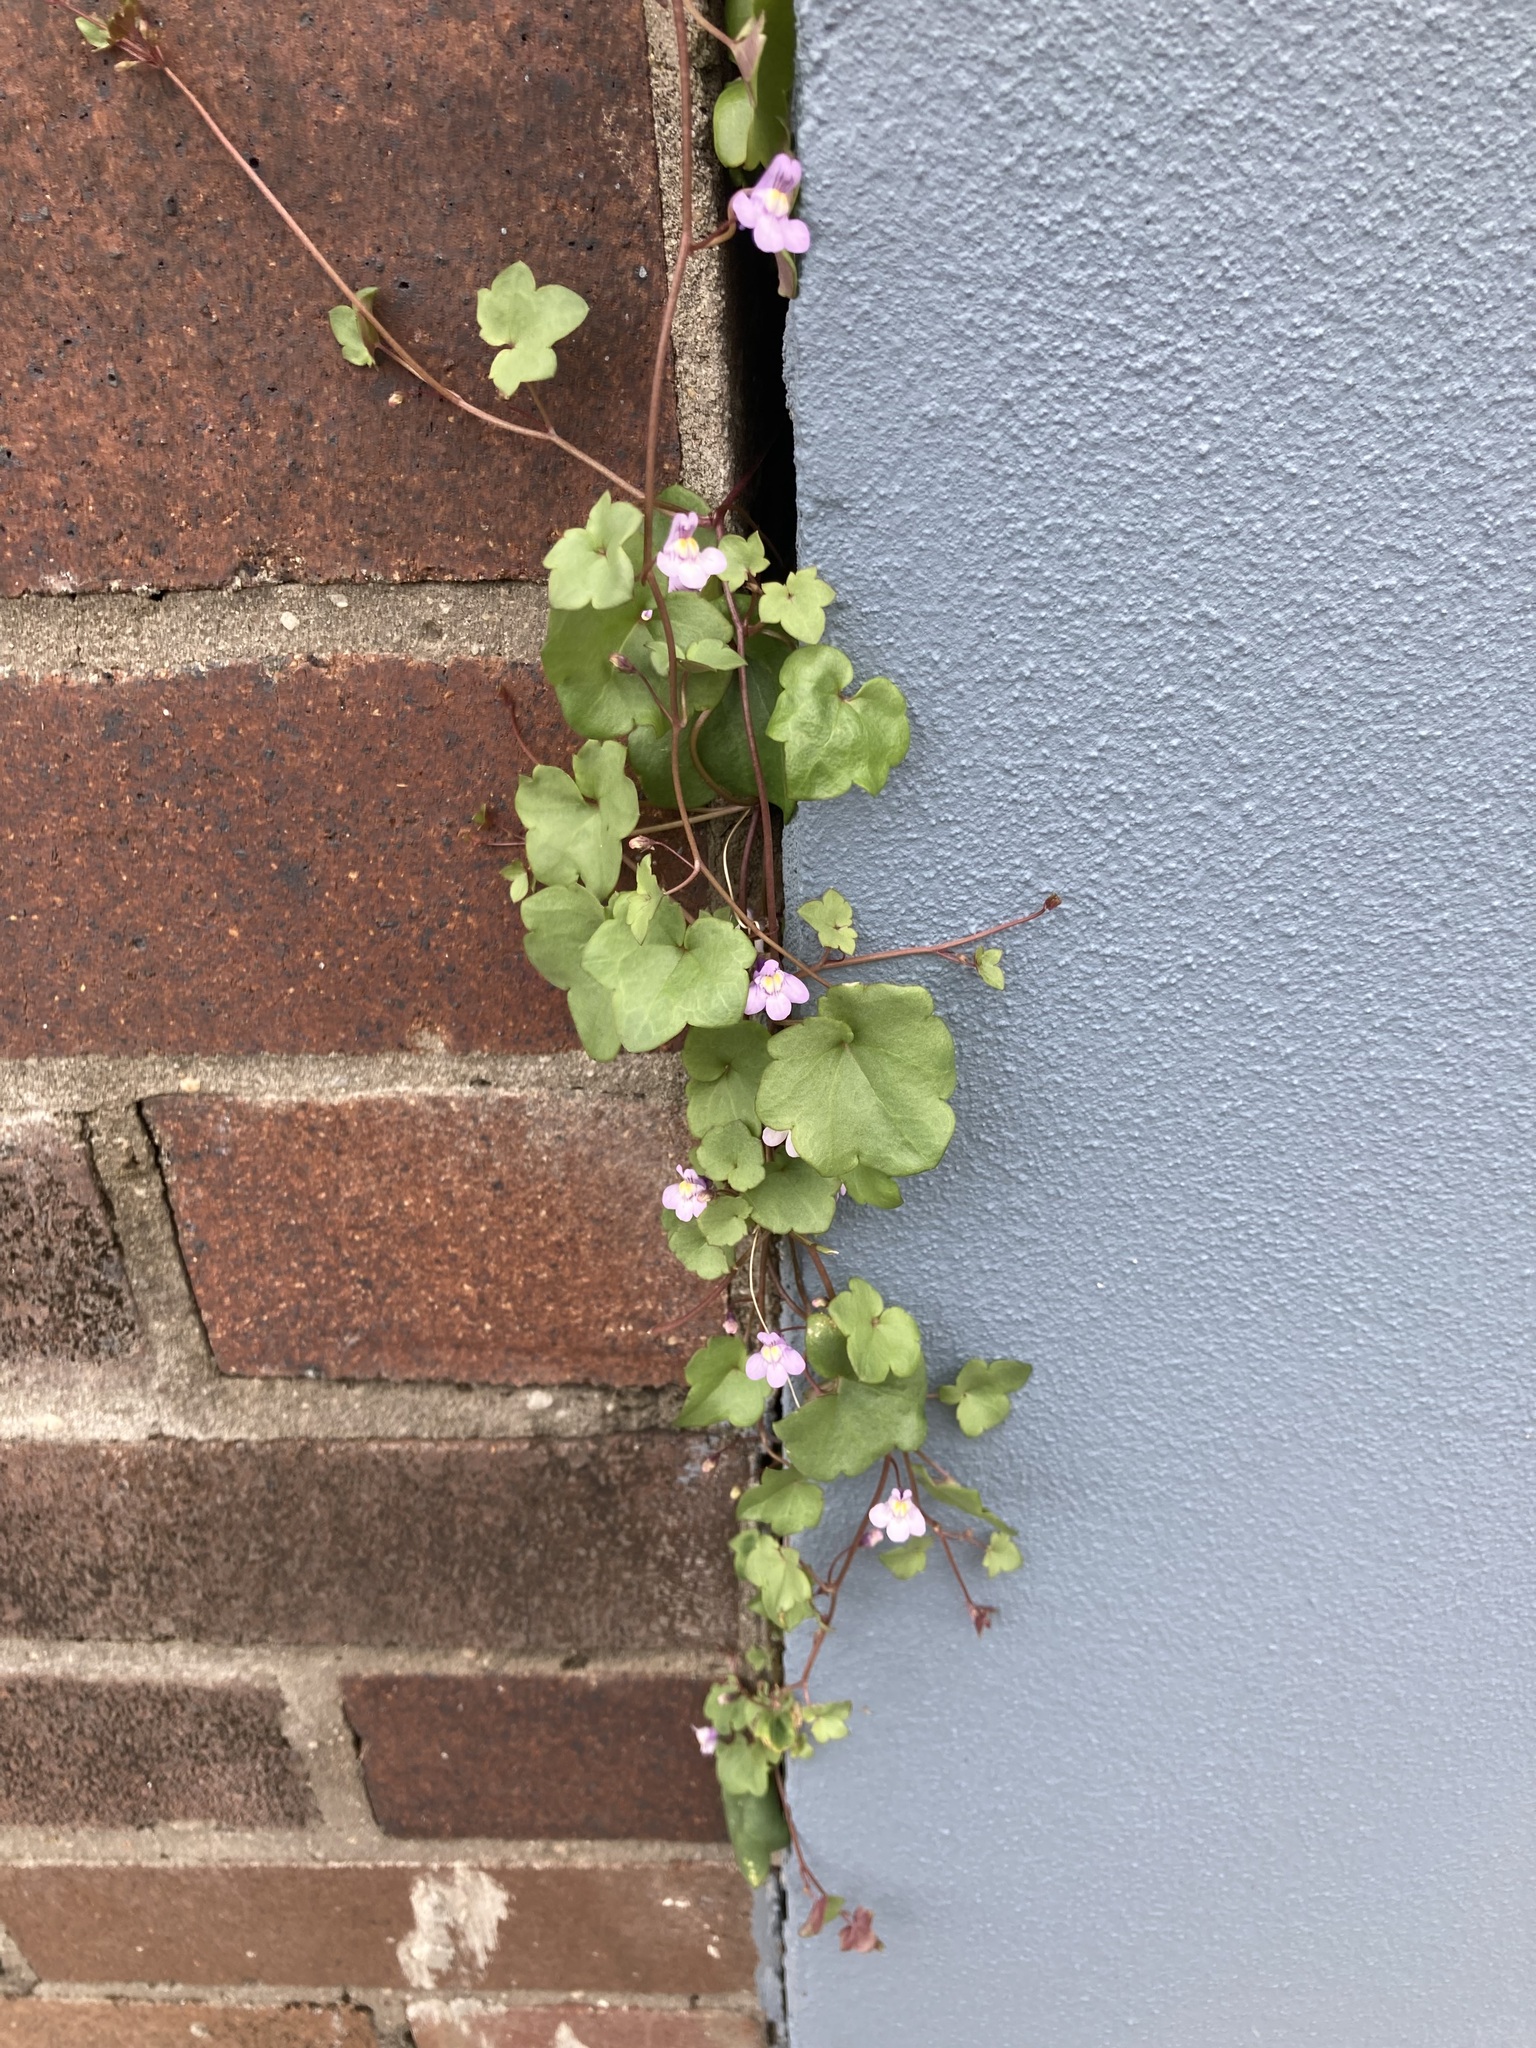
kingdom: Plantae
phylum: Tracheophyta
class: Magnoliopsida
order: Lamiales
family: Plantaginaceae
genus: Cymbalaria
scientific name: Cymbalaria muralis
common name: Ivy-leaved toadflax
